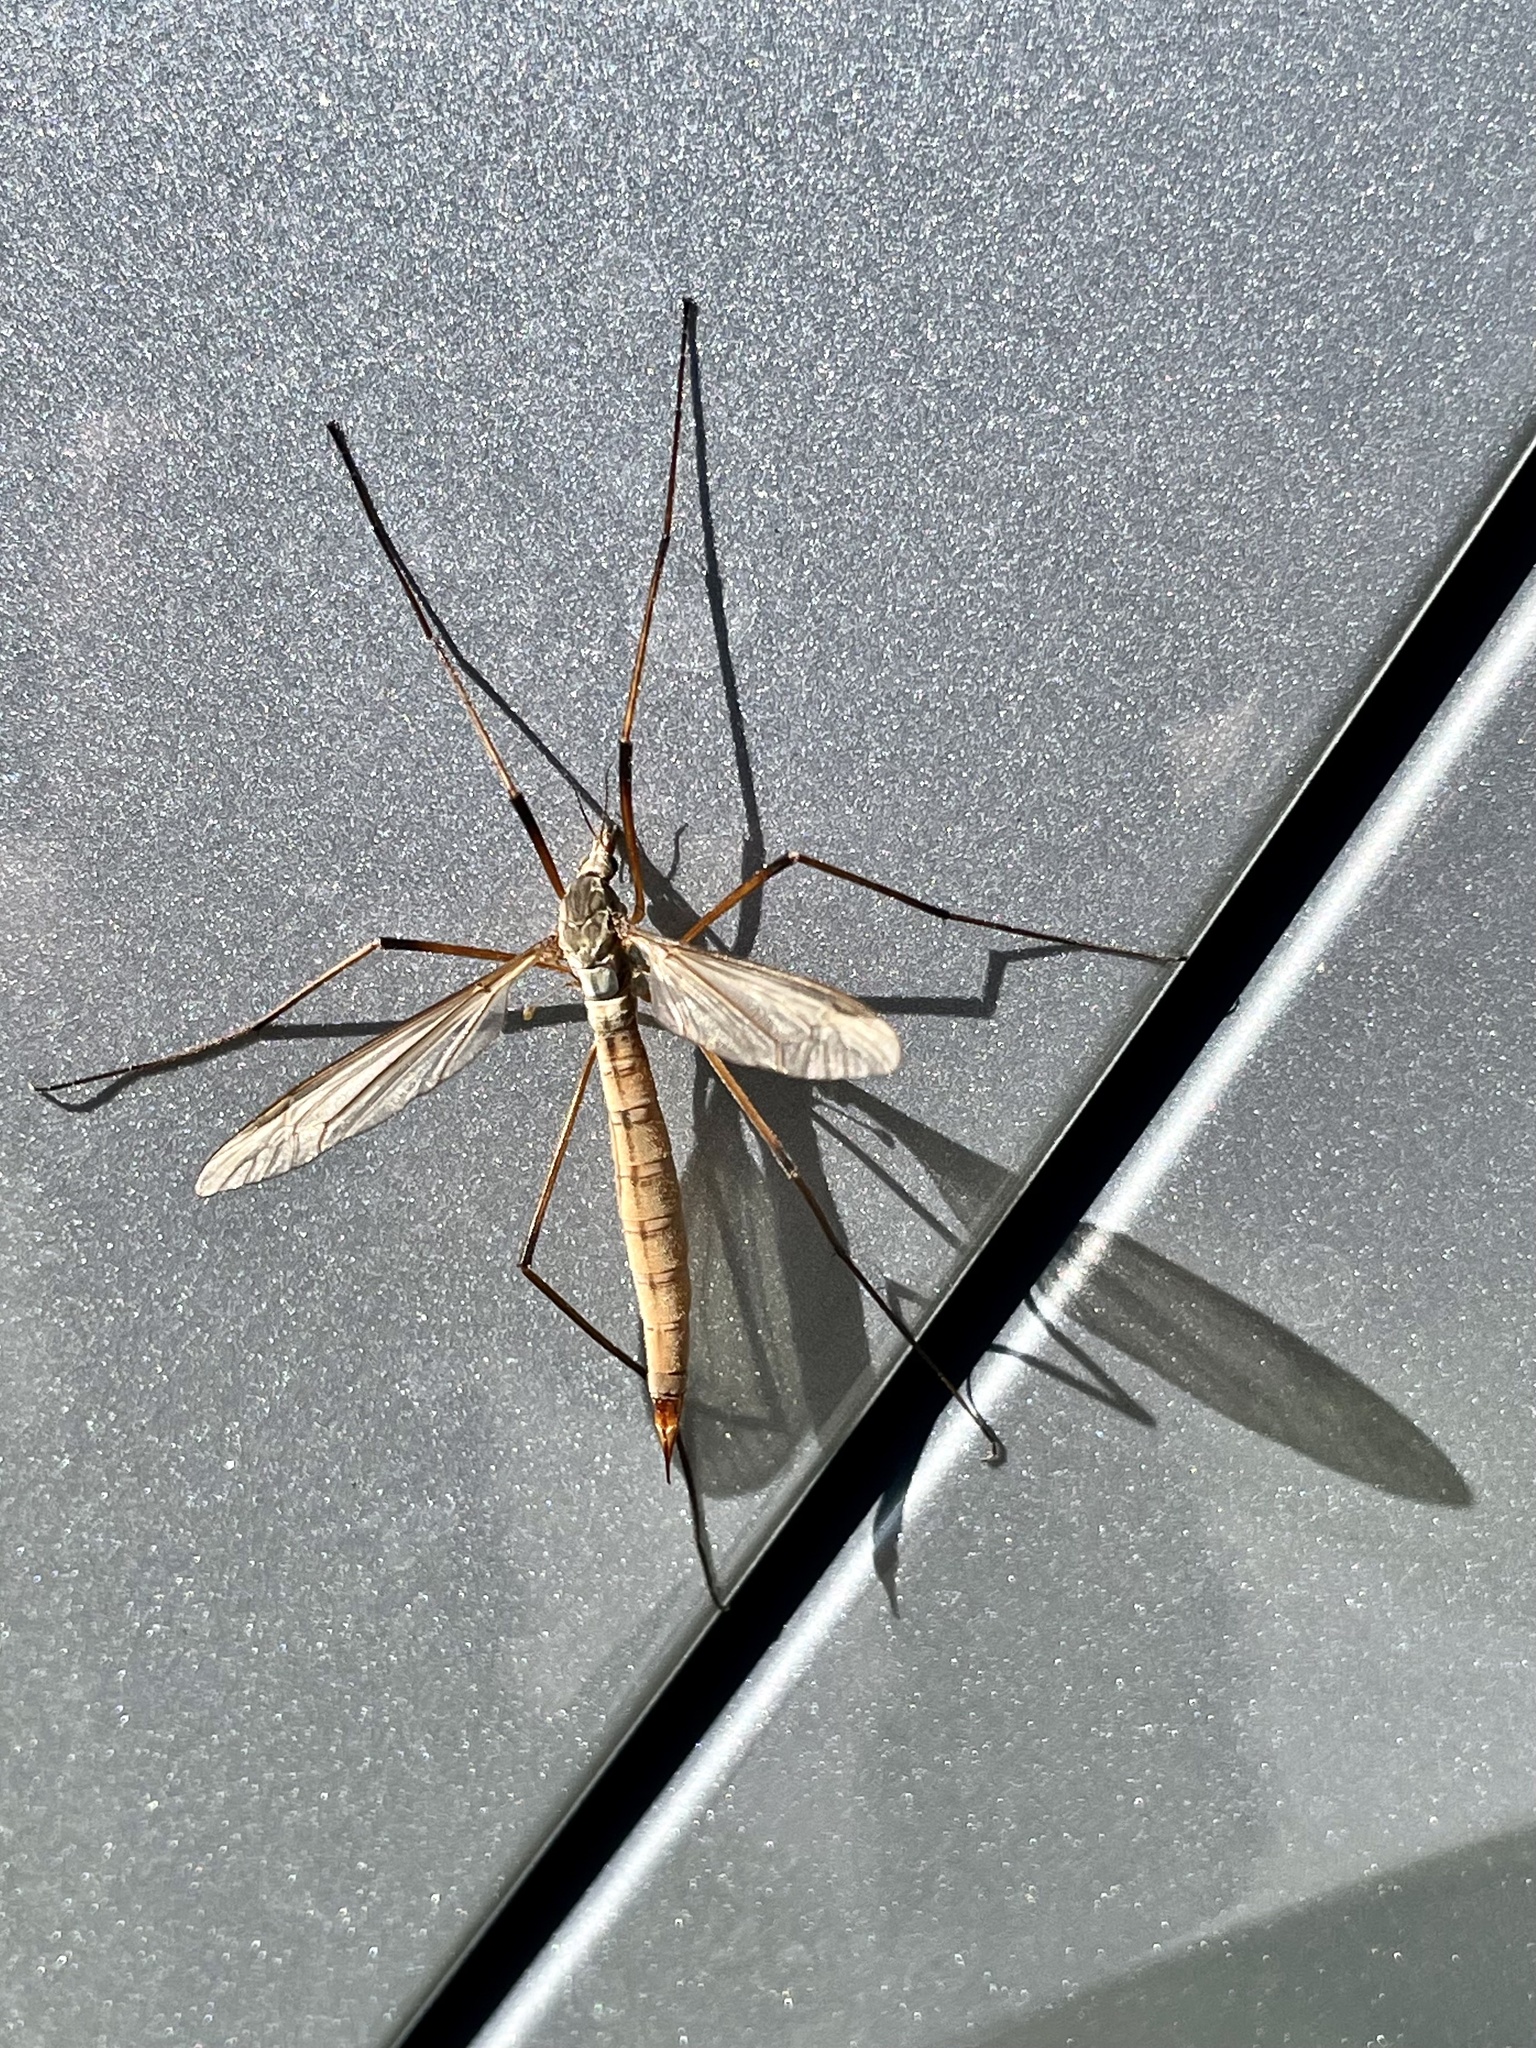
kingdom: Animalia
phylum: Arthropoda
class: Insecta
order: Diptera
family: Tipulidae
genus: Tipula
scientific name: Tipula paludosa
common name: European cranefly
